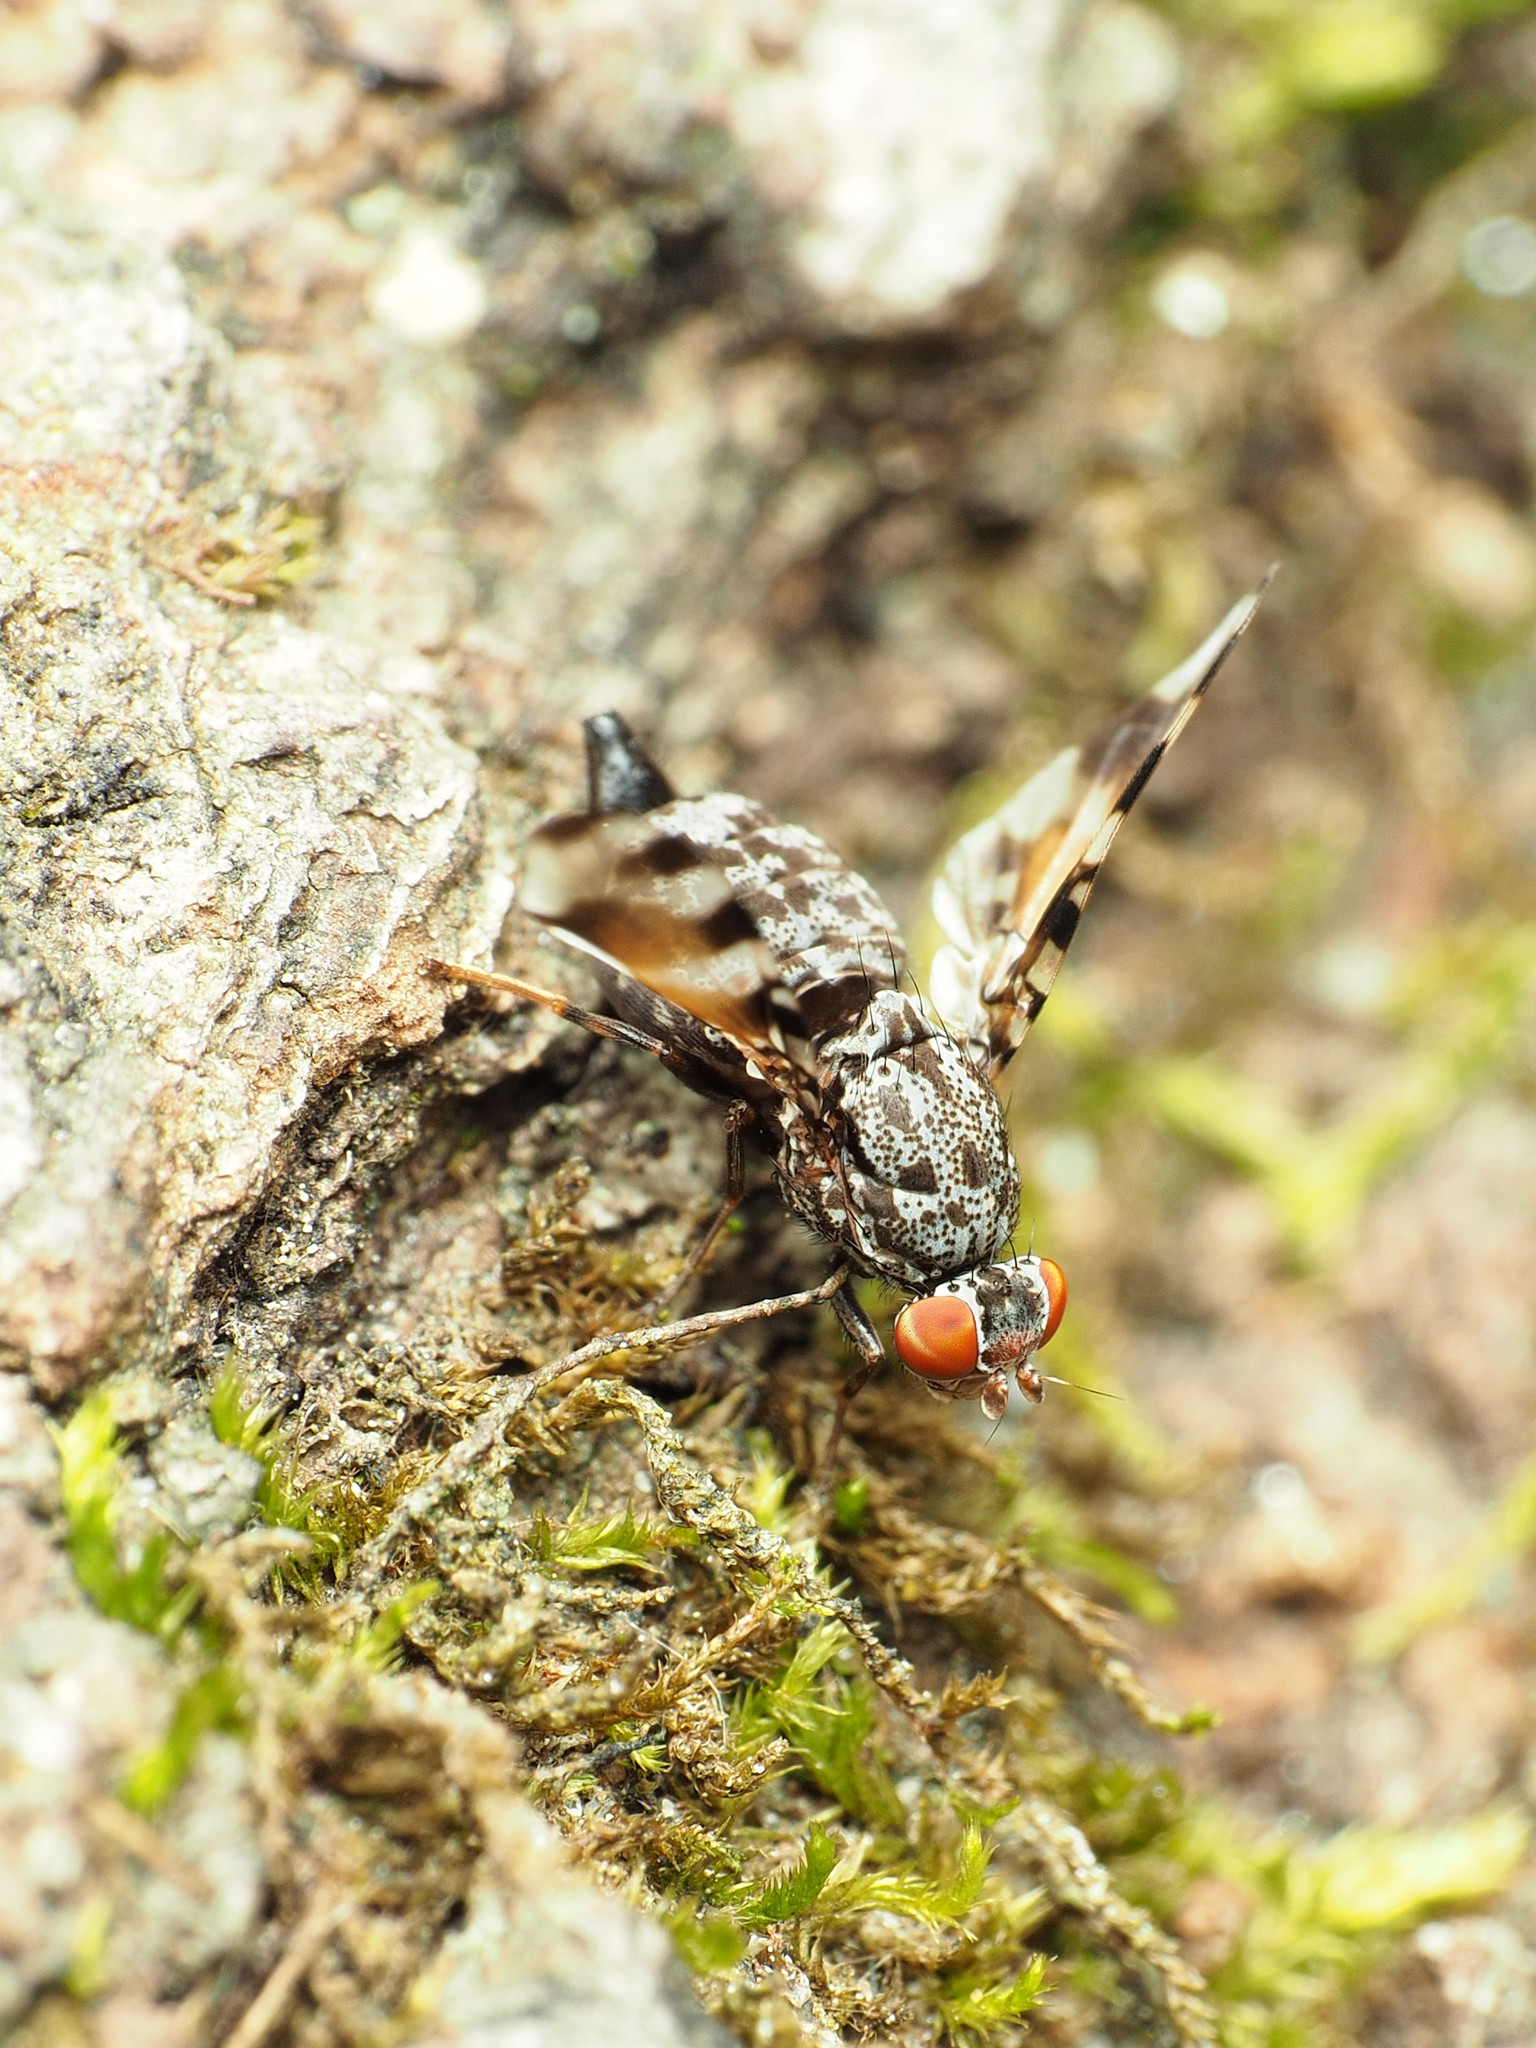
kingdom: Animalia
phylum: Arthropoda
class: Insecta
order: Diptera
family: Ulidiidae
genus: Pseudotephritis
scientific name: Pseudotephritis vau
